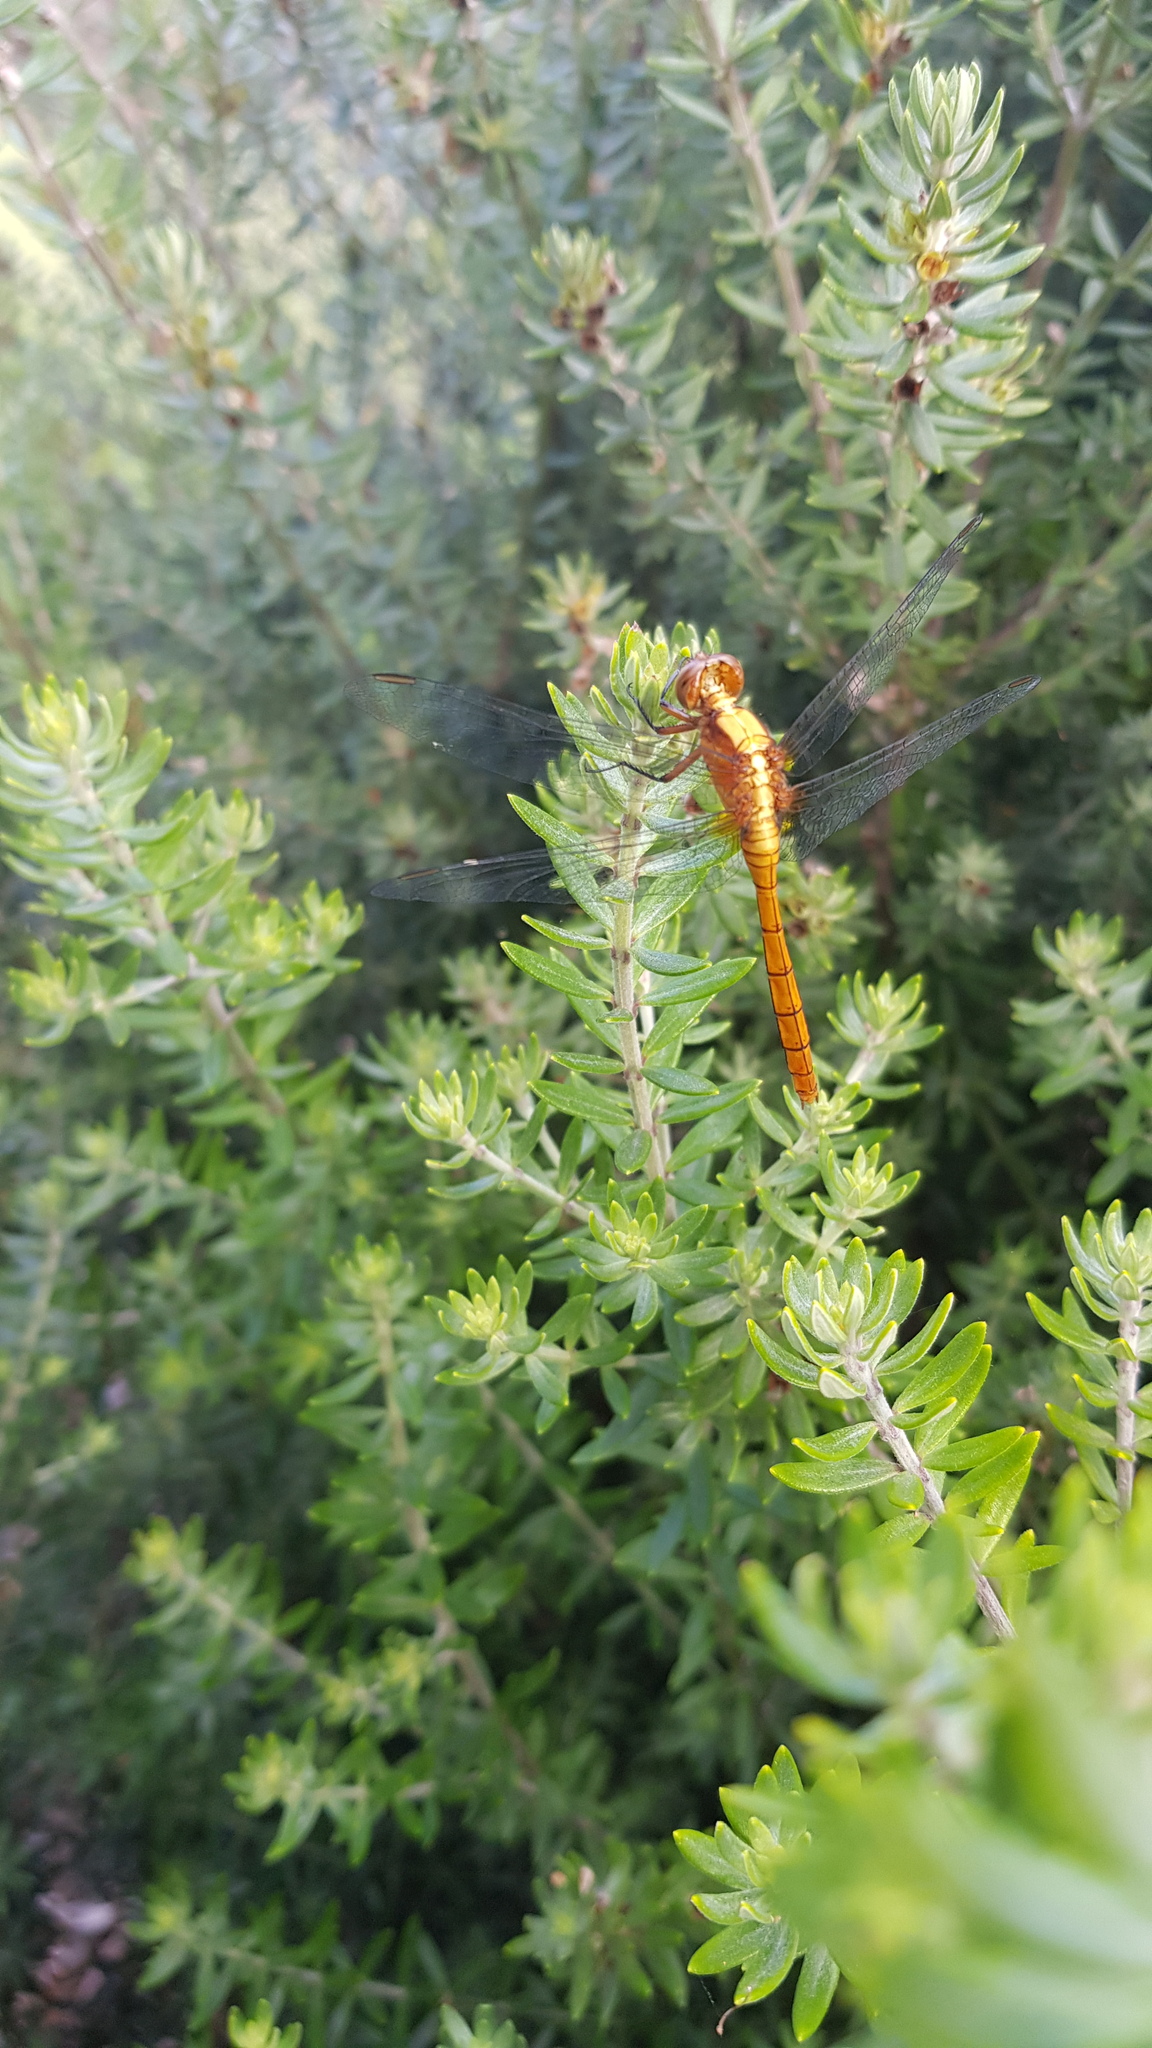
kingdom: Animalia
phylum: Arthropoda
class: Insecta
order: Odonata
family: Libellulidae
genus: Orthetrum
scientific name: Orthetrum villosovittatum
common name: Firery skimmer
